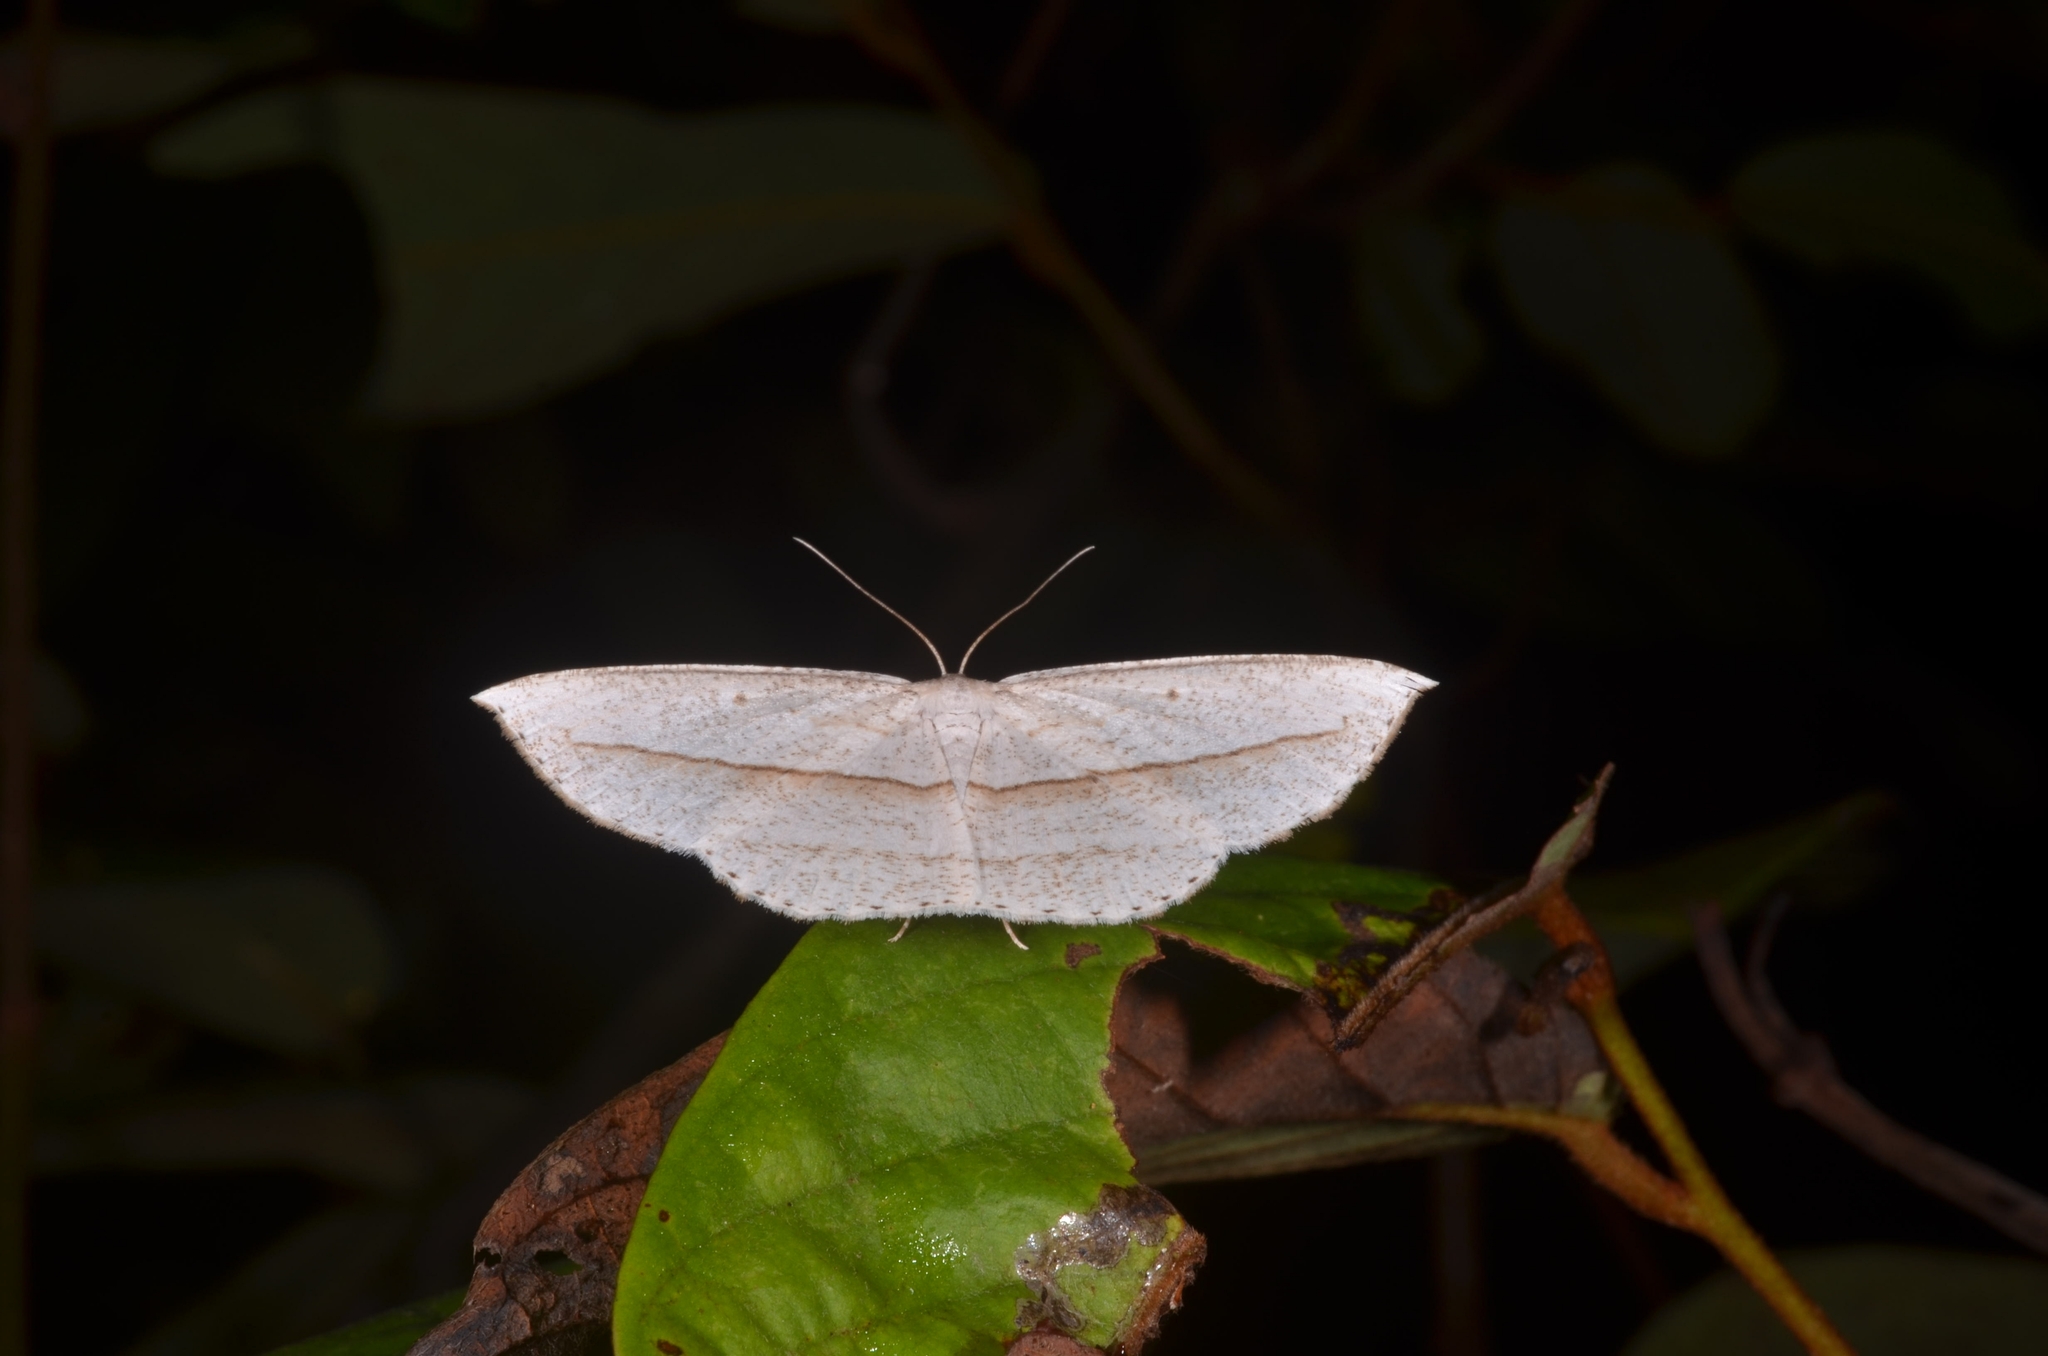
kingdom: Animalia
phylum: Arthropoda
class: Insecta
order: Lepidoptera
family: Geometridae
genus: Heteralex
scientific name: Heteralex rectilineata
